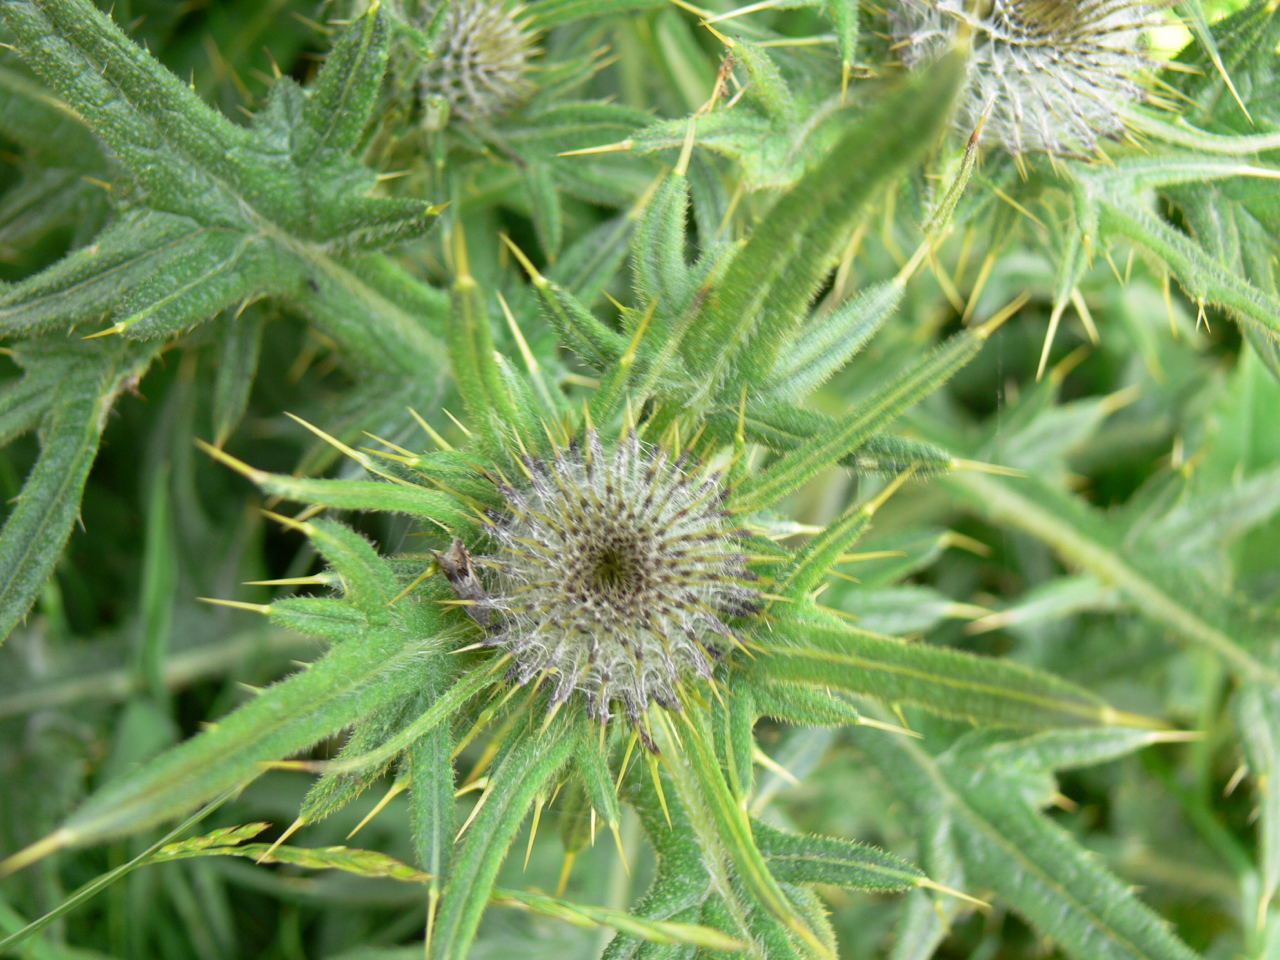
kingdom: Plantae
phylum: Tracheophyta
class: Magnoliopsida
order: Asterales
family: Asteraceae
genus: Cirsium
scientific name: Cirsium vulgare
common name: Bull thistle
